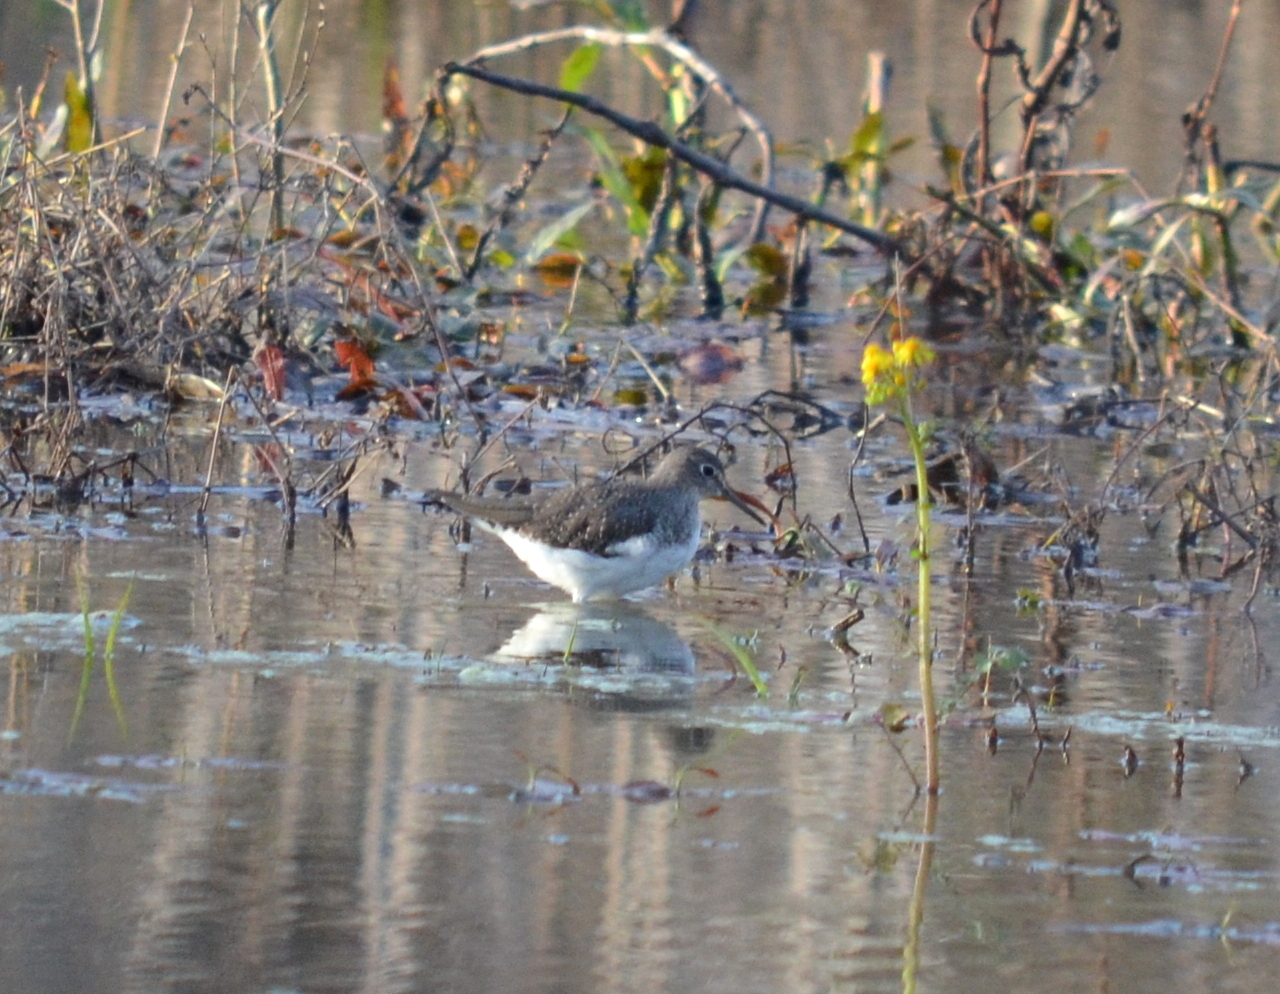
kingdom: Animalia
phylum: Chordata
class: Aves
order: Charadriiformes
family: Scolopacidae
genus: Tringa
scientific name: Tringa solitaria
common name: Solitary sandpiper
